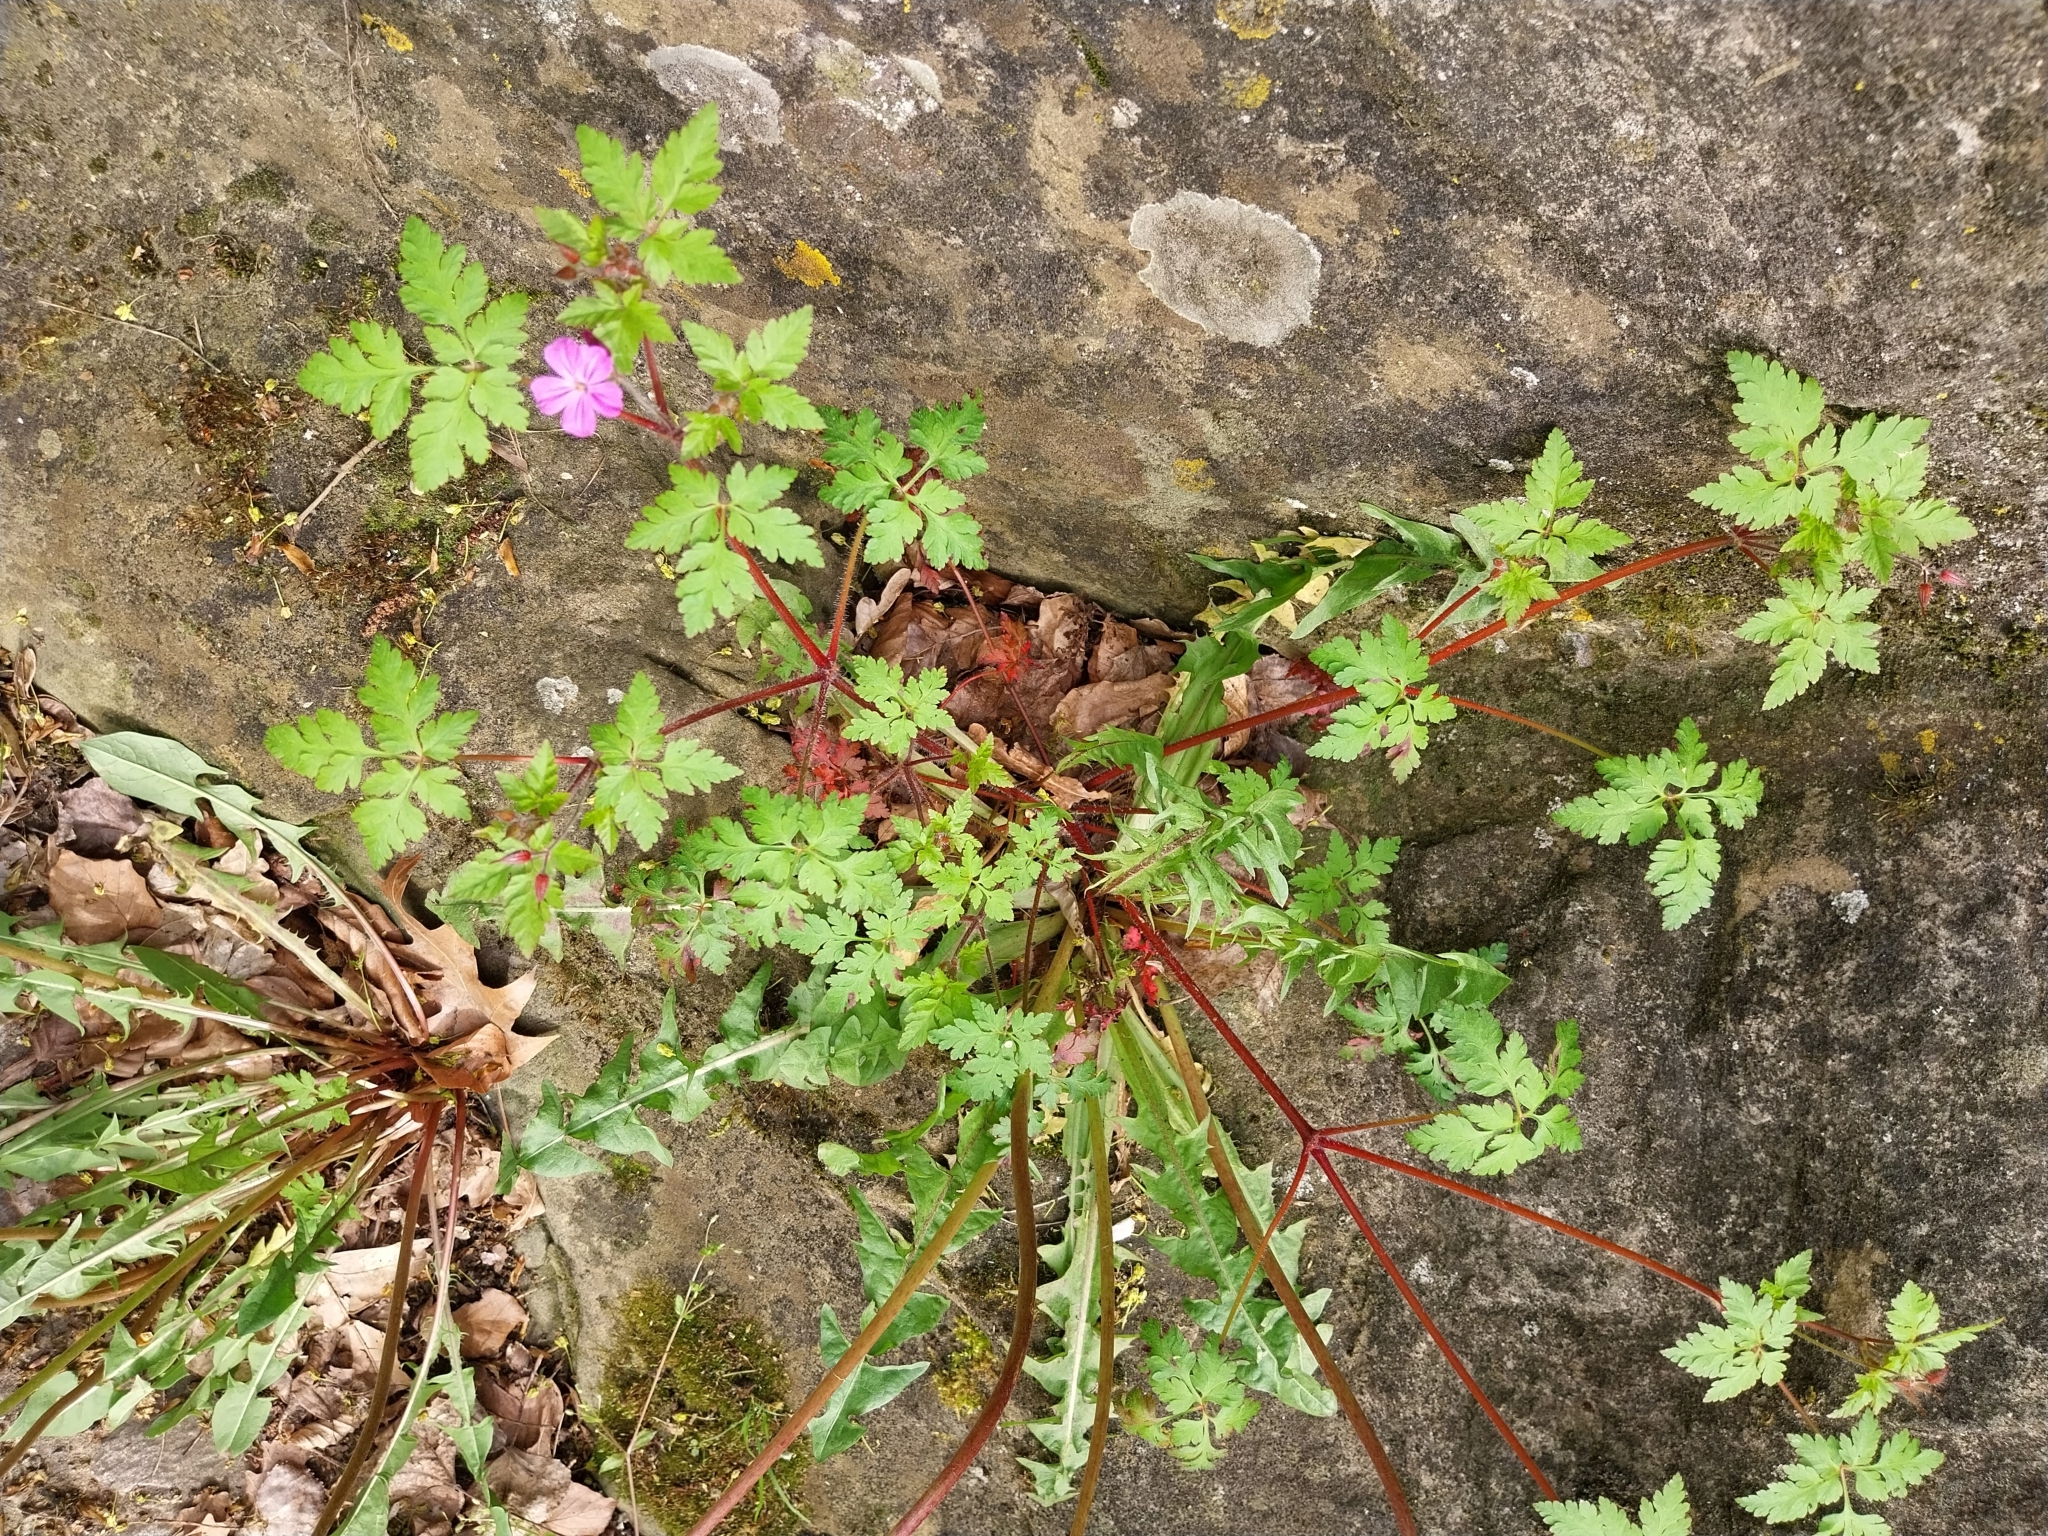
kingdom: Plantae
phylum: Tracheophyta
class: Magnoliopsida
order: Geraniales
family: Geraniaceae
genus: Geranium
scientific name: Geranium robertianum
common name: Herb-robert
